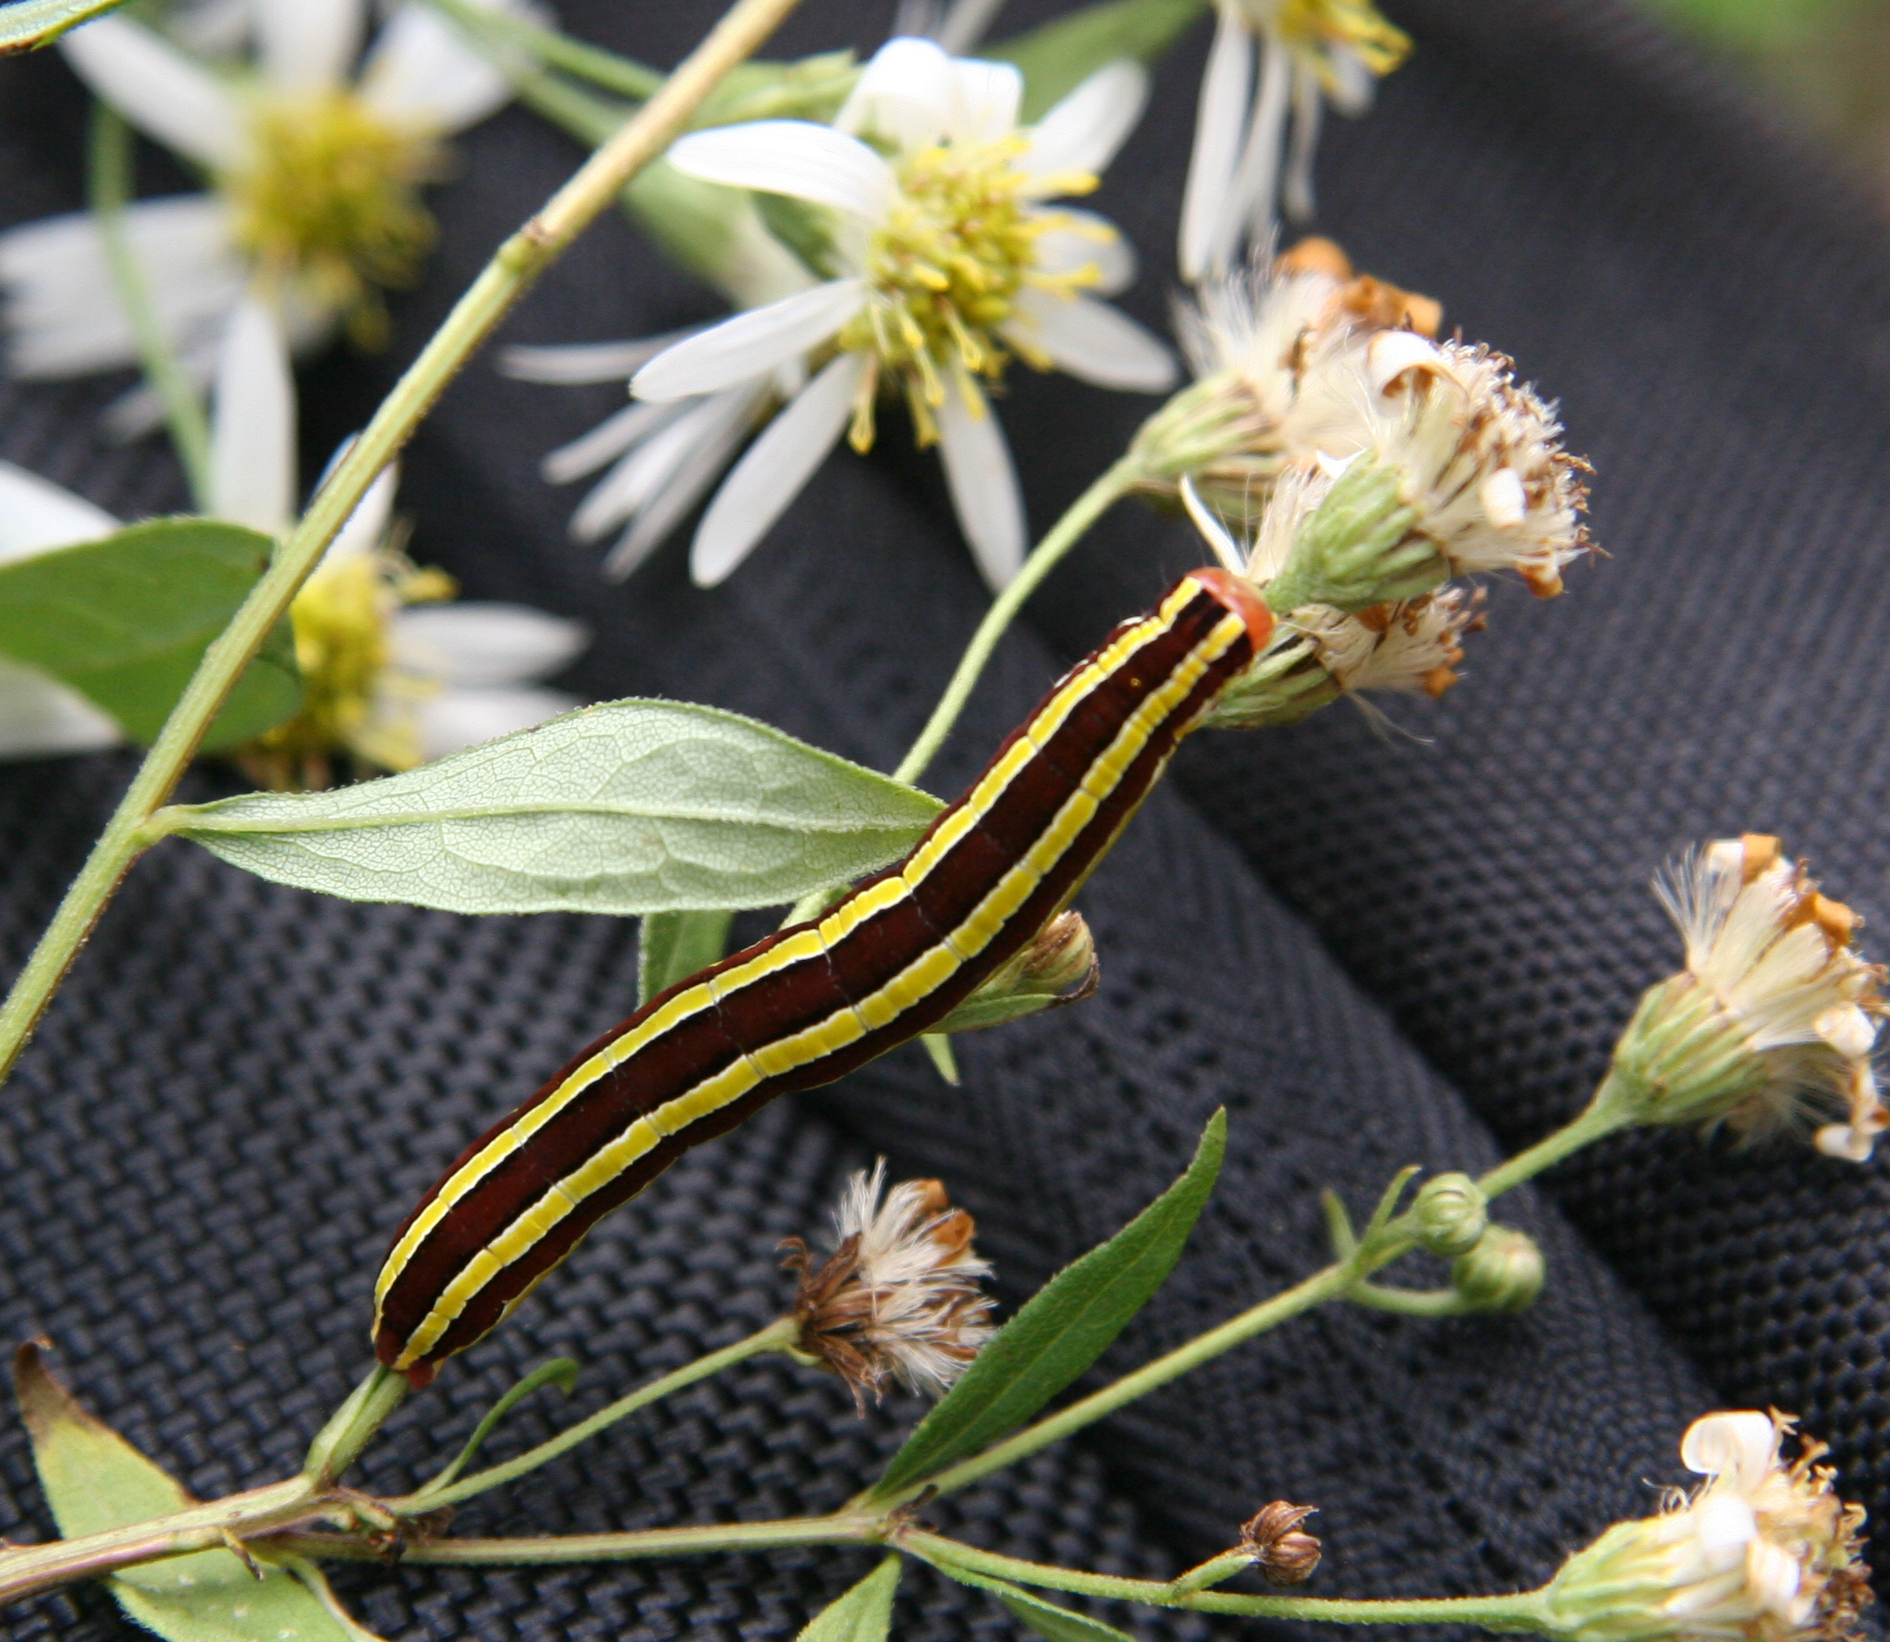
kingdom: Animalia
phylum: Arthropoda
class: Insecta
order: Lepidoptera
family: Noctuidae
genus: Melanchra
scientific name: Melanchra assimilis
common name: Black arches
